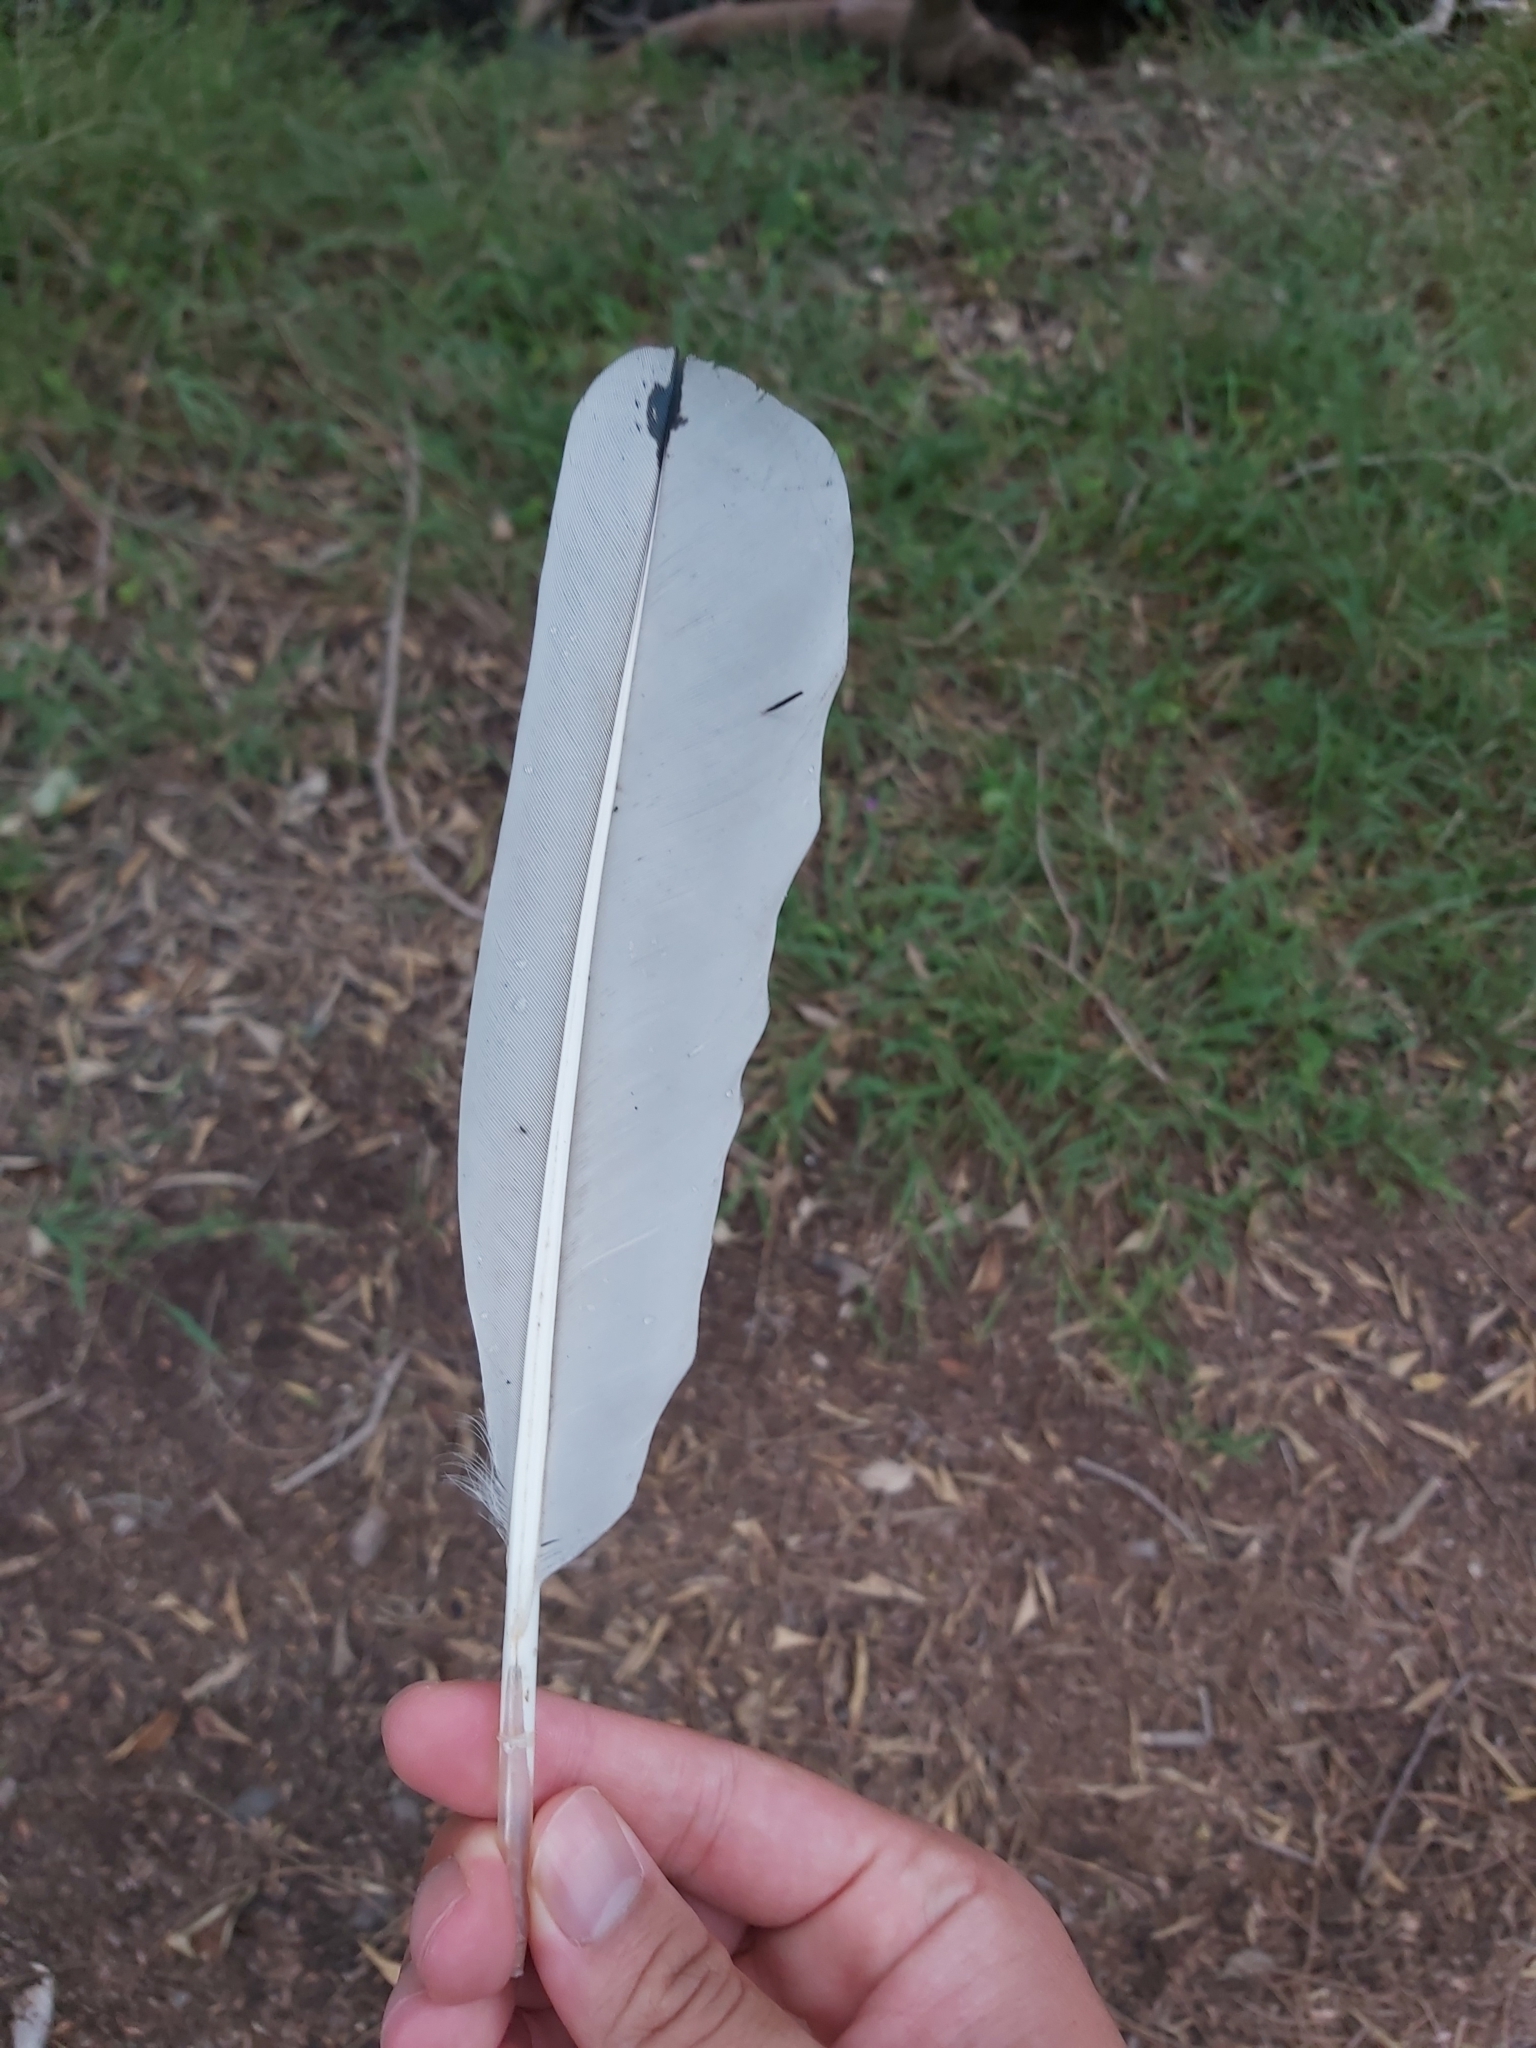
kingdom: Animalia
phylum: Chordata
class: Aves
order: Pelecaniformes
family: Threskiornithidae
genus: Threskiornis
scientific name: Threskiornis molucca
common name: Australian white ibis
